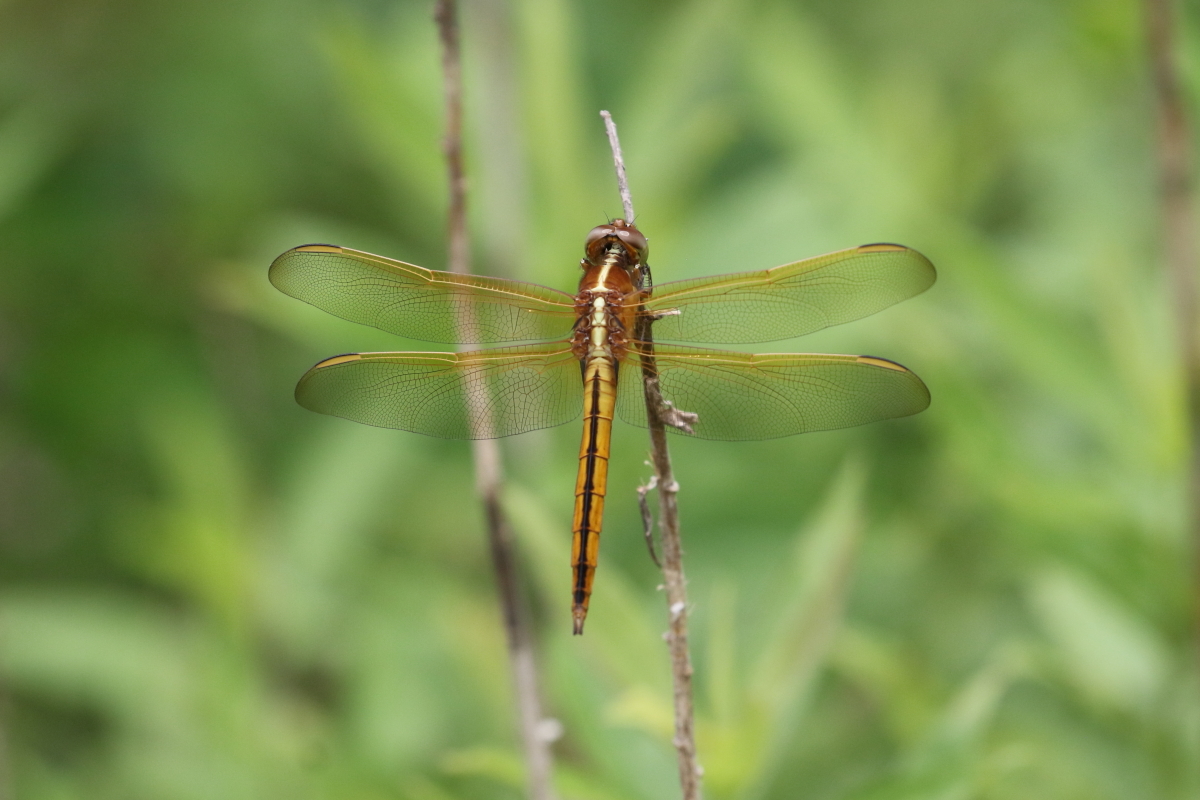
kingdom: Animalia
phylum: Arthropoda
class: Insecta
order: Odonata
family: Libellulidae
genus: Libellula
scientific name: Libellula needhami
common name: Needham's skimmer
